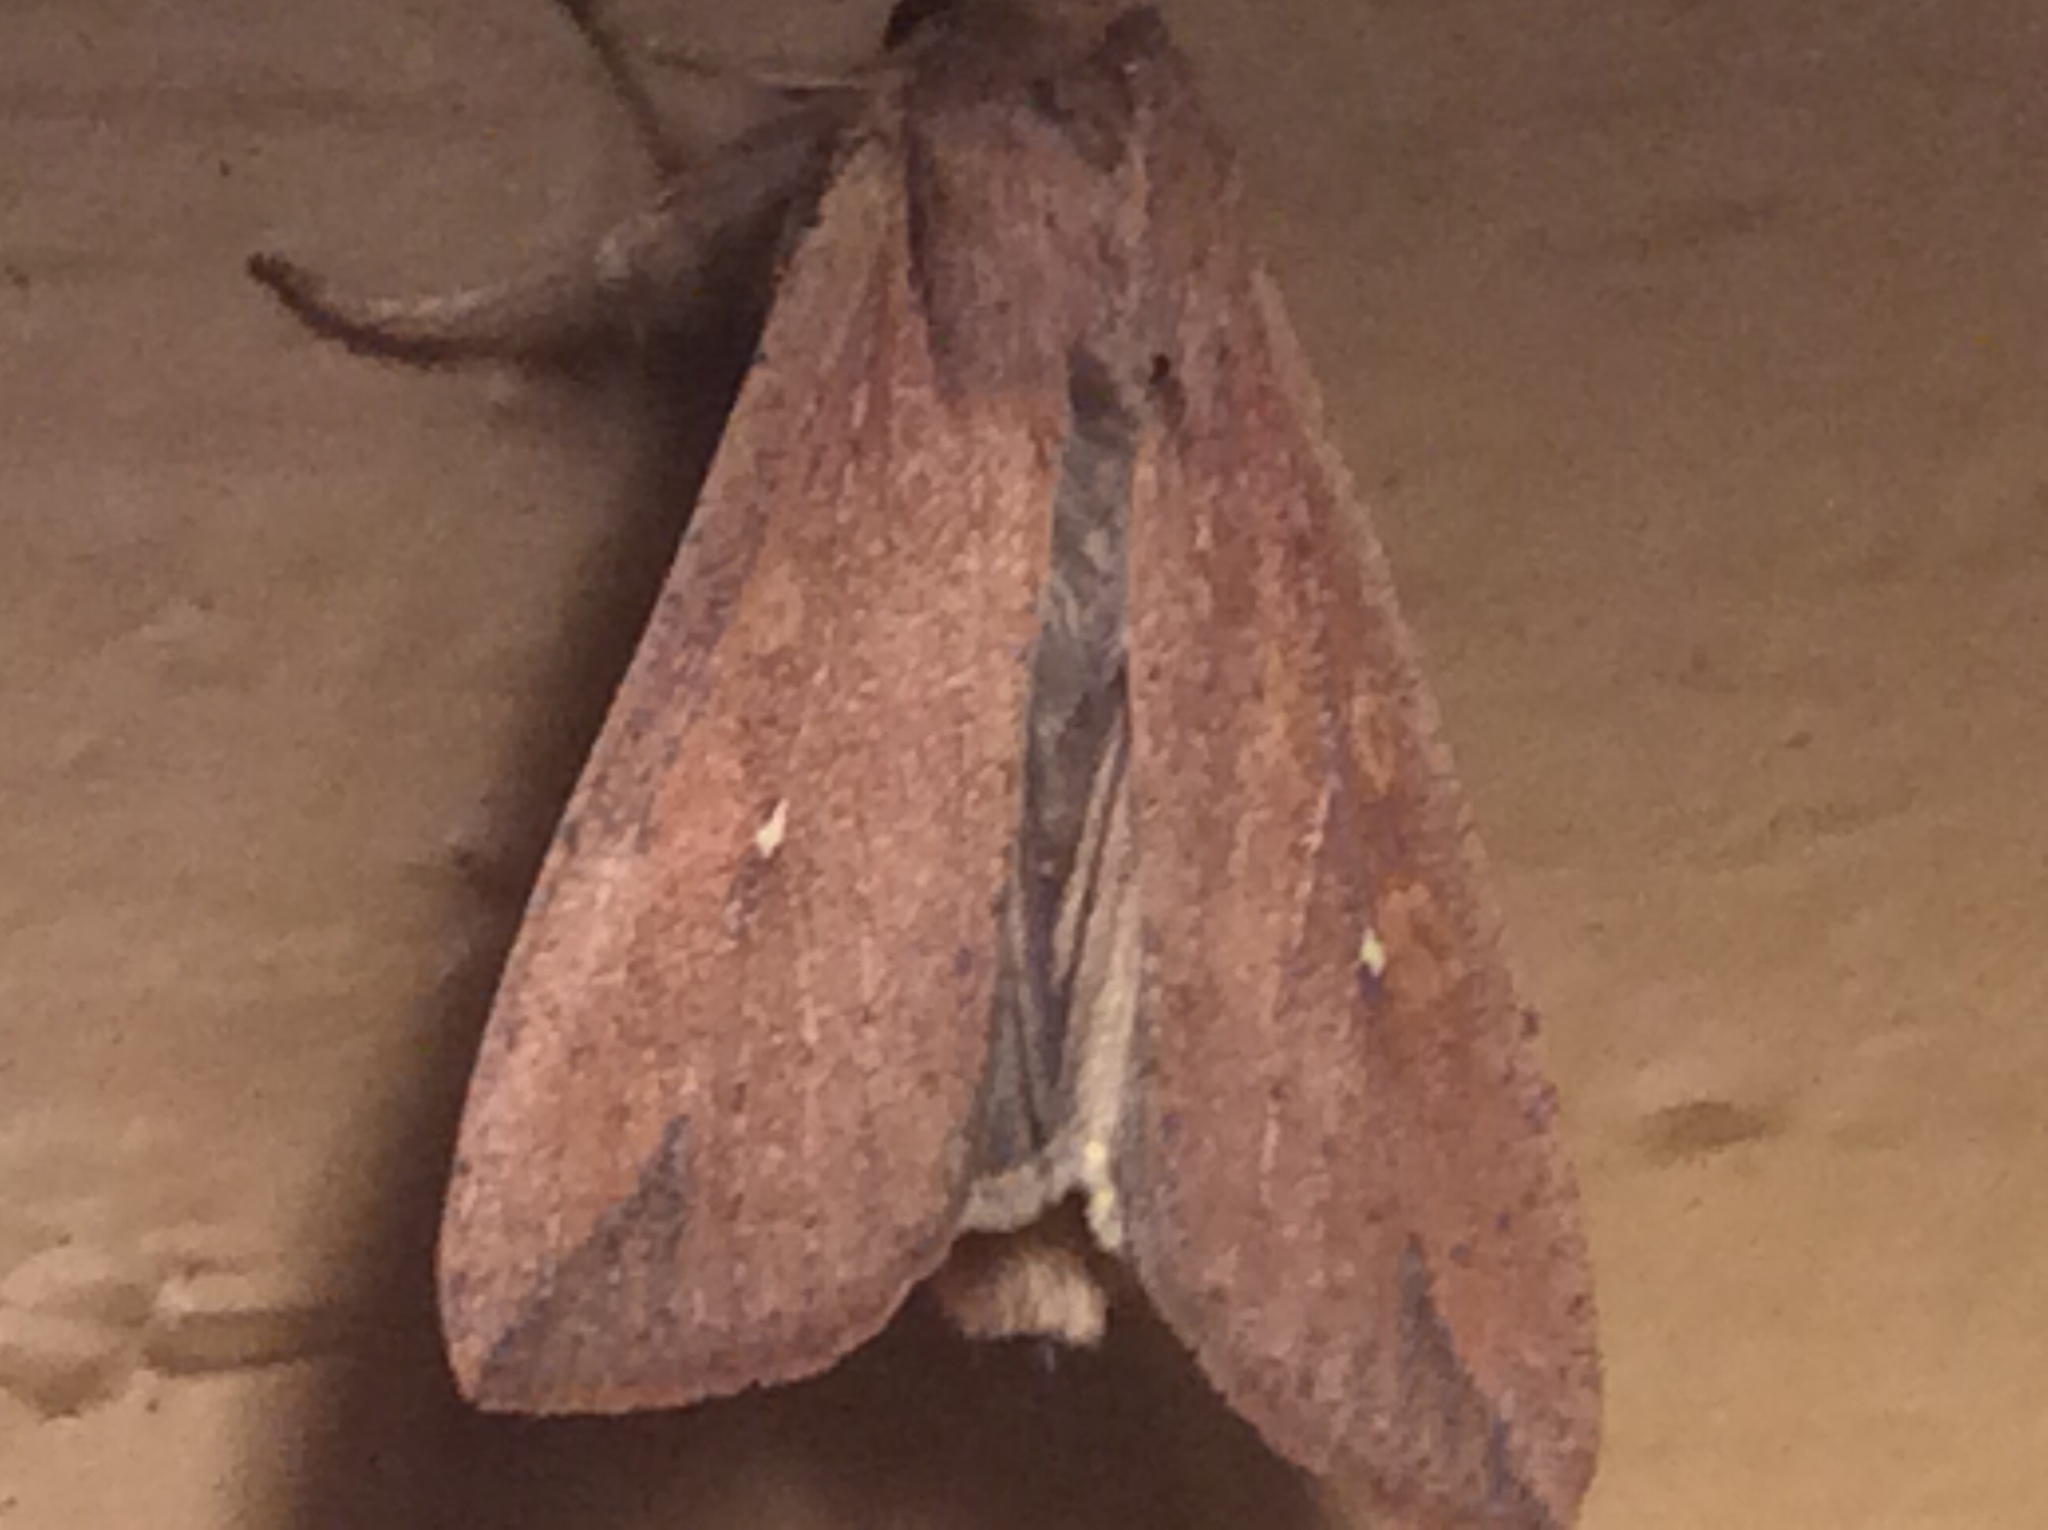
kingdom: Animalia
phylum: Arthropoda
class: Insecta
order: Lepidoptera
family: Noctuidae
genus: Mythimna
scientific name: Mythimna unipuncta
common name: White-speck
